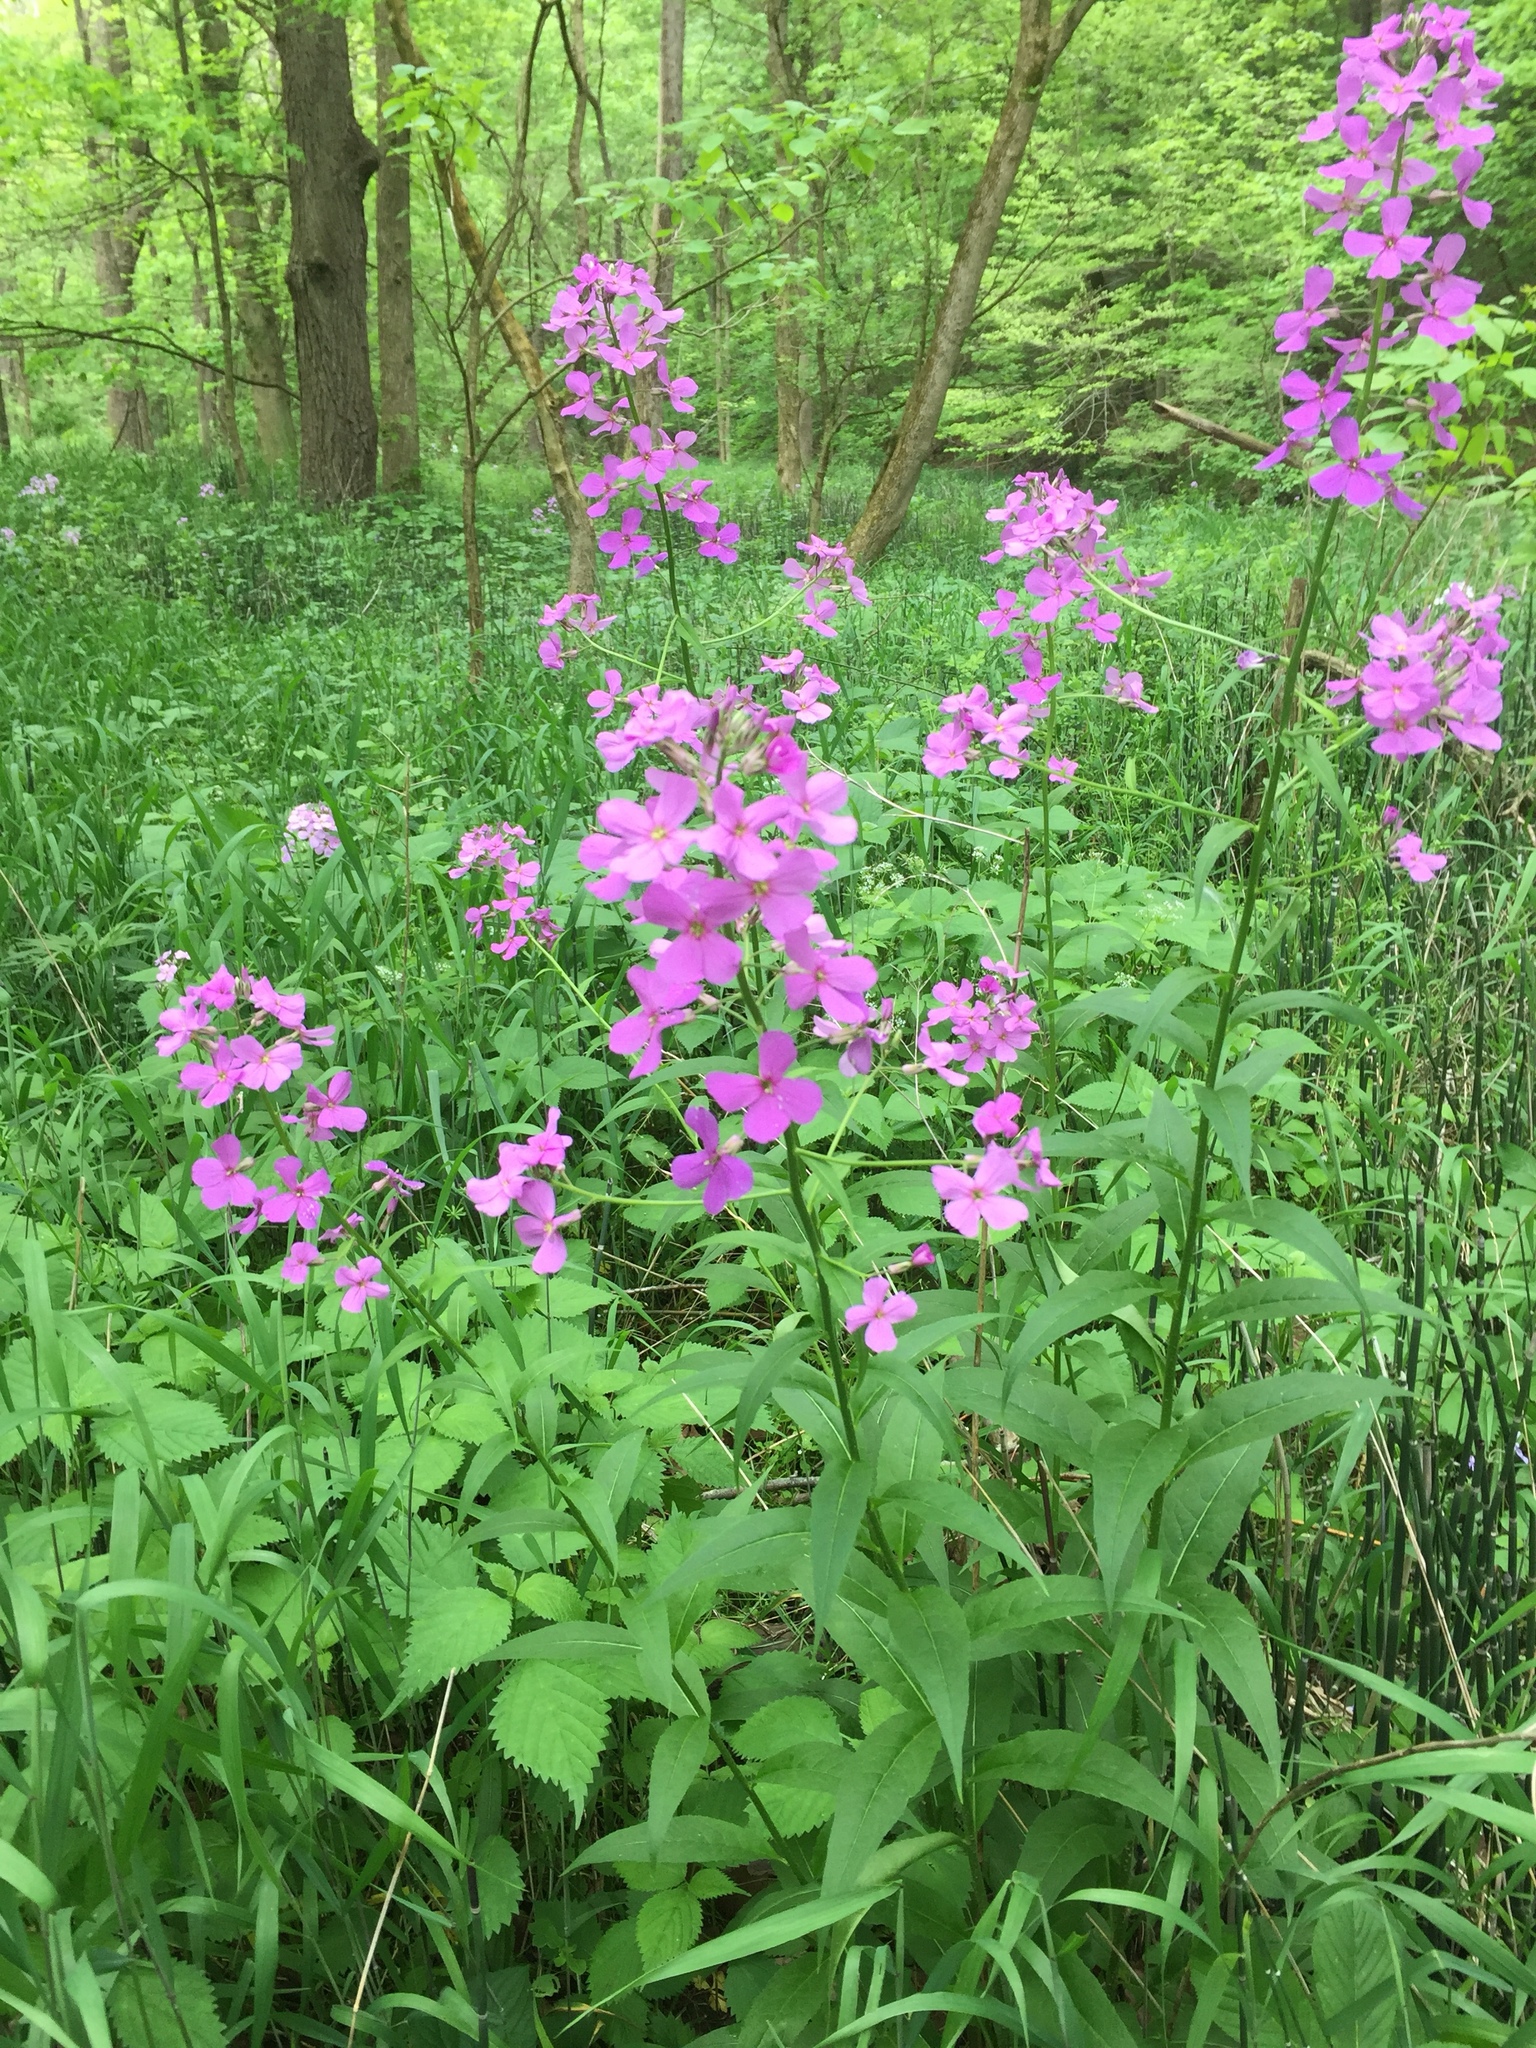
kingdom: Plantae
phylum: Tracheophyta
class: Magnoliopsida
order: Brassicales
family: Brassicaceae
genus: Hesperis
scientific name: Hesperis matronalis
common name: Dame's-violet
